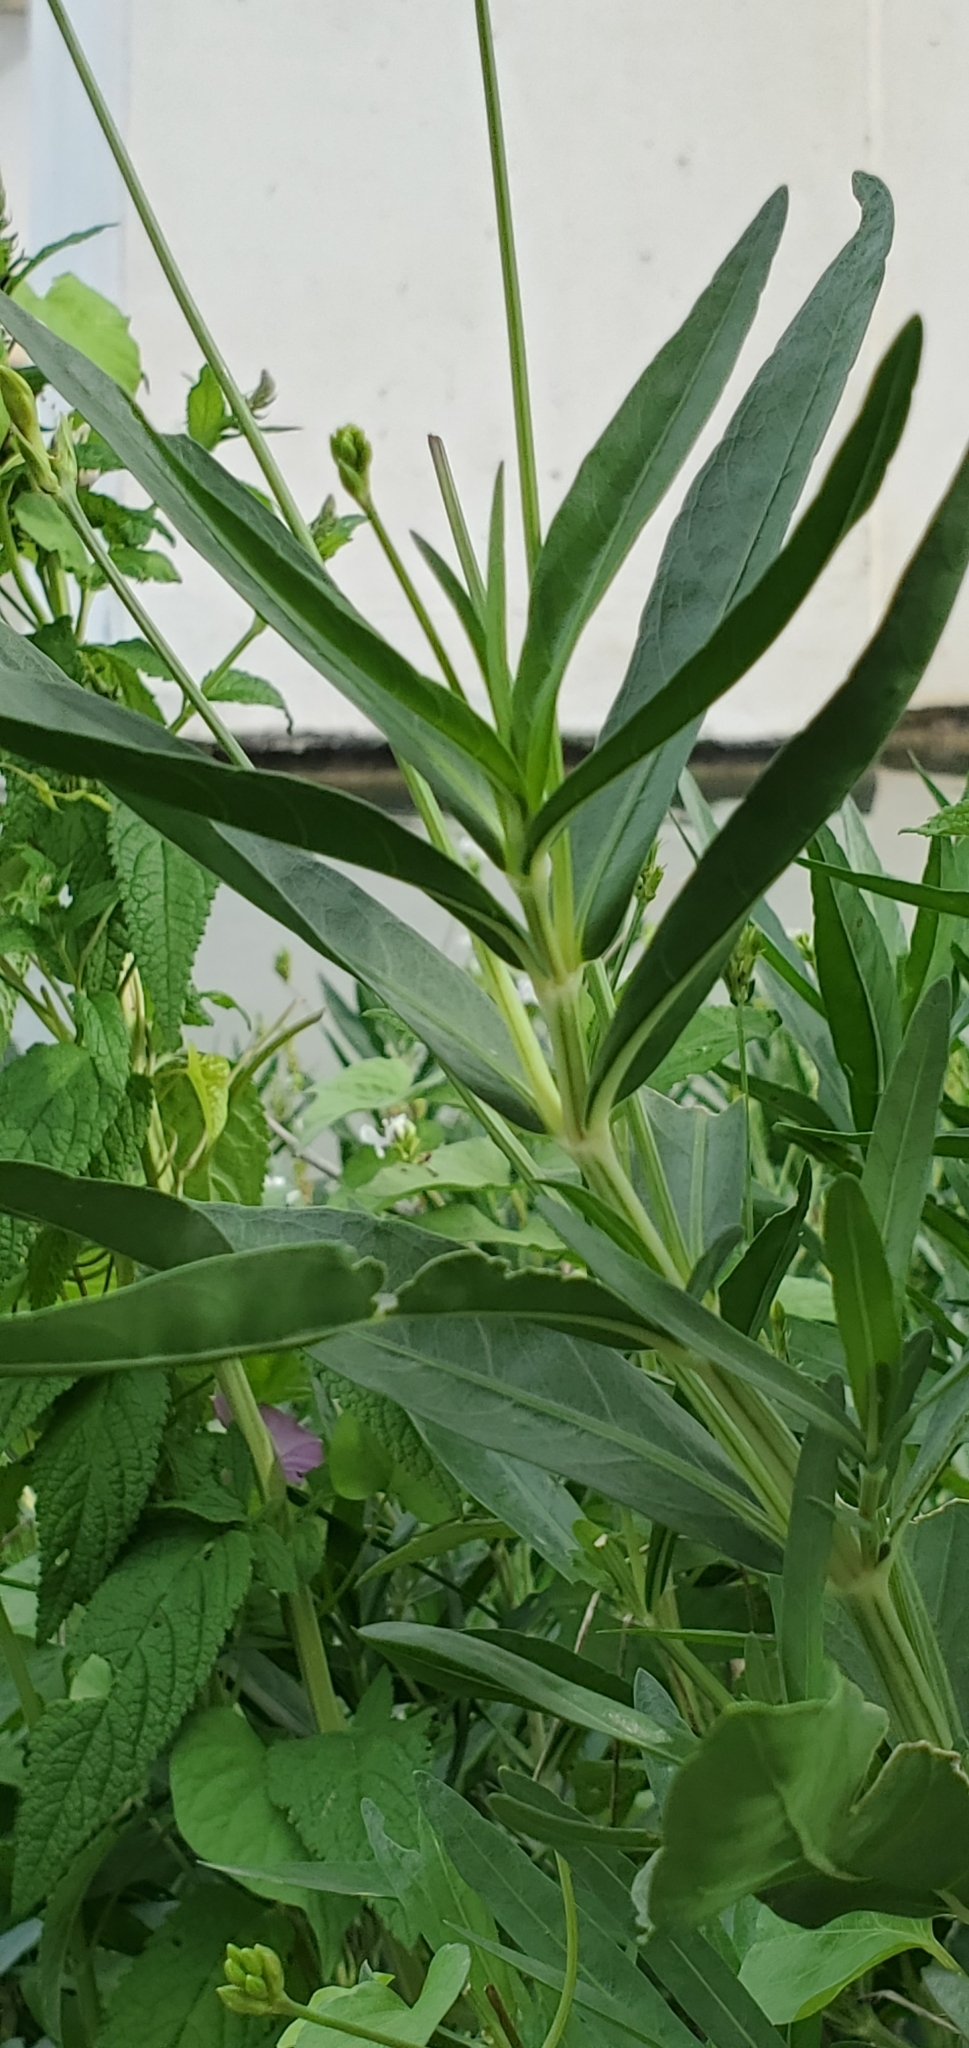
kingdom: Plantae
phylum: Tracheophyta
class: Magnoliopsida
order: Lamiales
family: Acanthaceae
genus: Dianthera
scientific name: Dianthera americana
